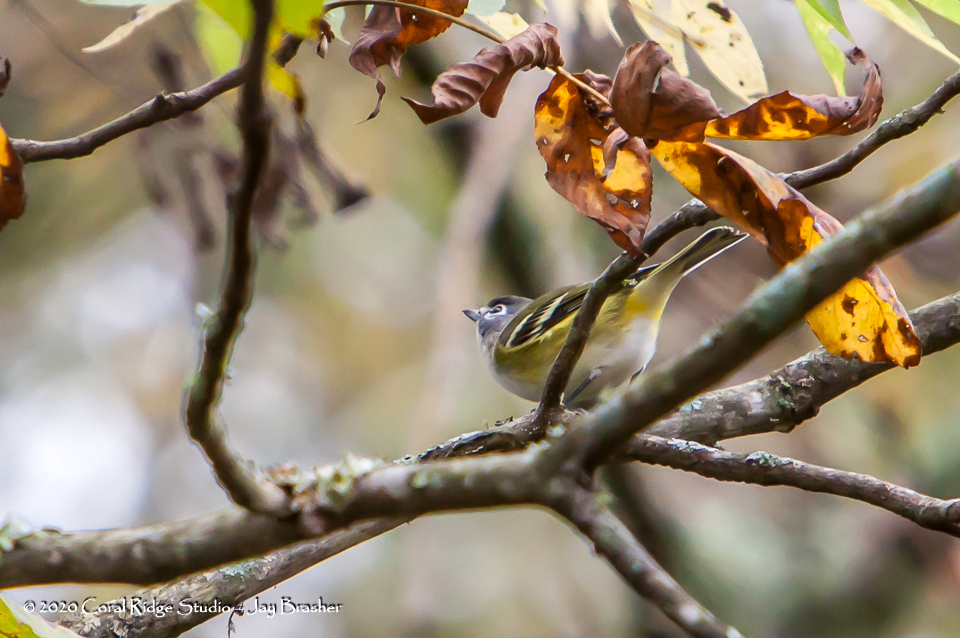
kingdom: Animalia
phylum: Chordata
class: Aves
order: Passeriformes
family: Vireonidae
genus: Vireo
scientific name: Vireo solitarius
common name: Blue-headed vireo
